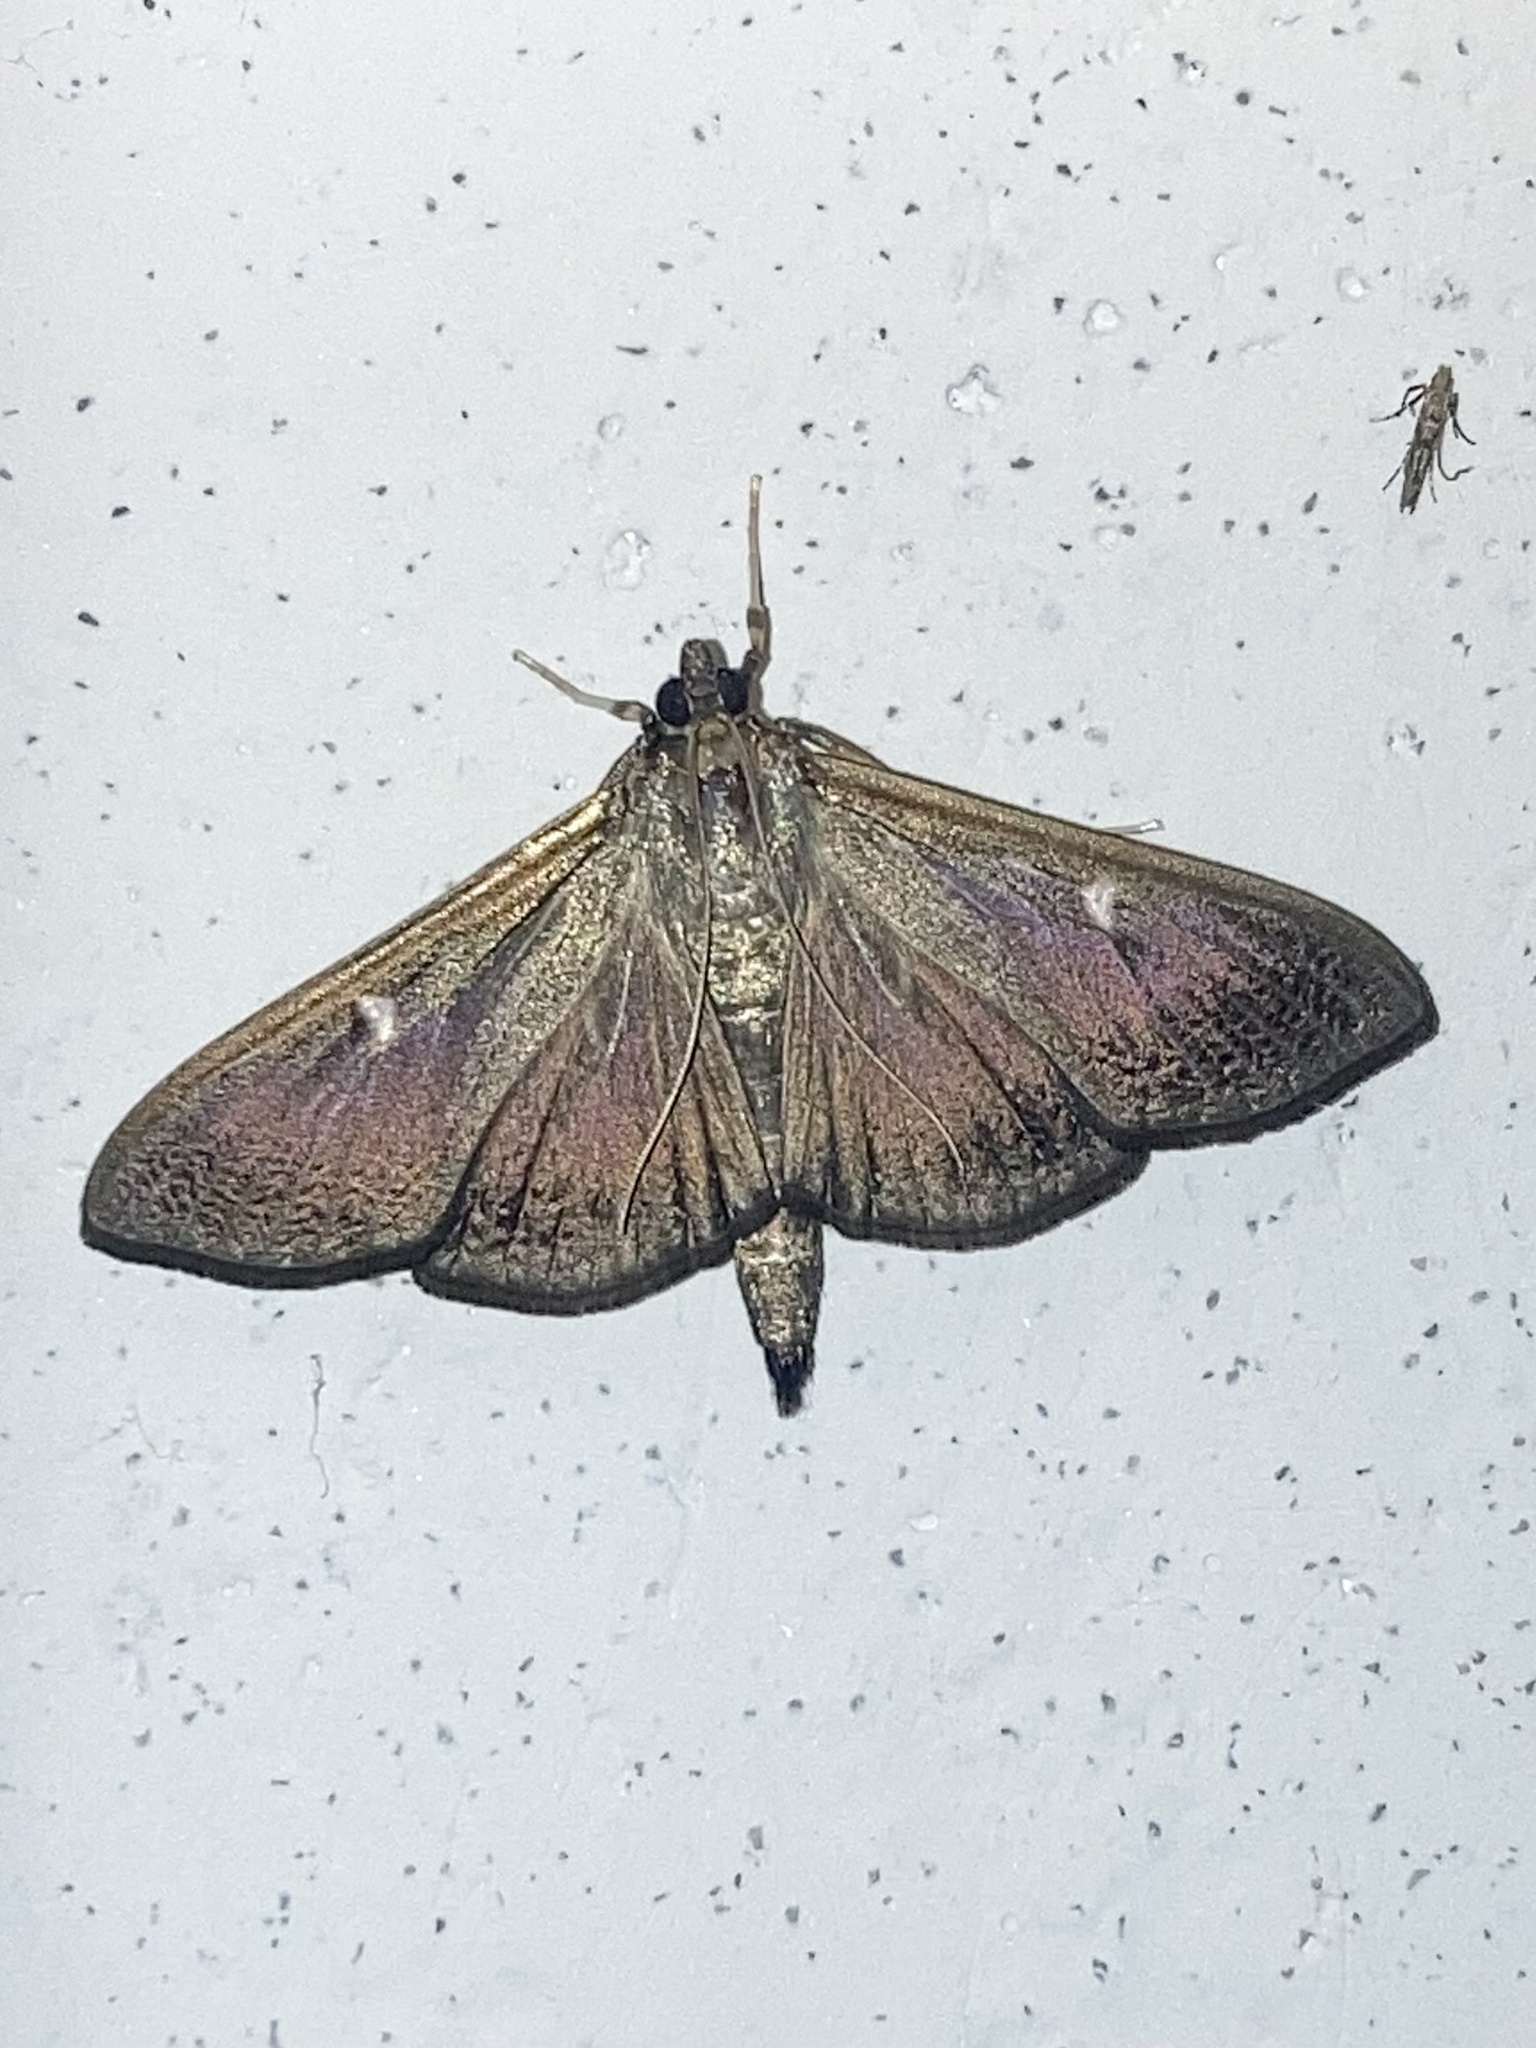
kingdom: Animalia
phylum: Arthropoda
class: Insecta
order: Lepidoptera
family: Crambidae
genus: Cydalima
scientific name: Cydalima perspectalis
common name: Box tree moth
